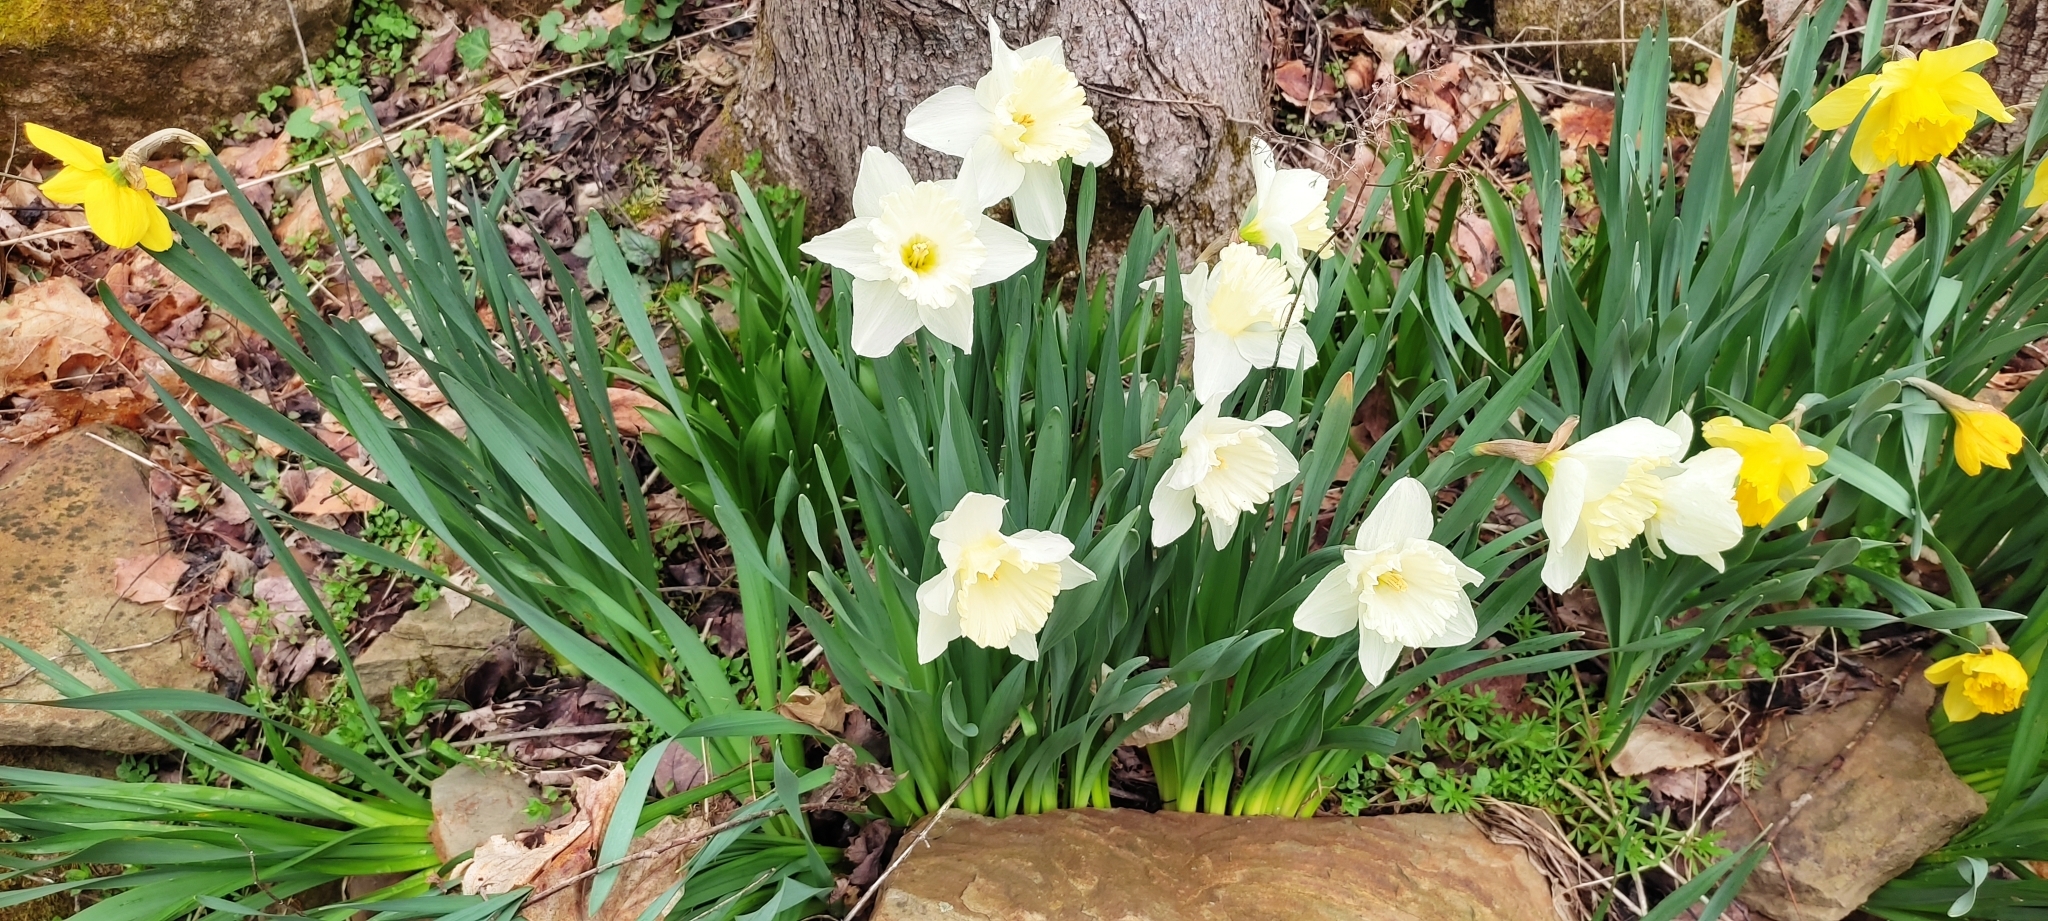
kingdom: Plantae
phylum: Tracheophyta
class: Liliopsida
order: Asparagales
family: Amaryllidaceae
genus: Narcissus
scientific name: Narcissus
